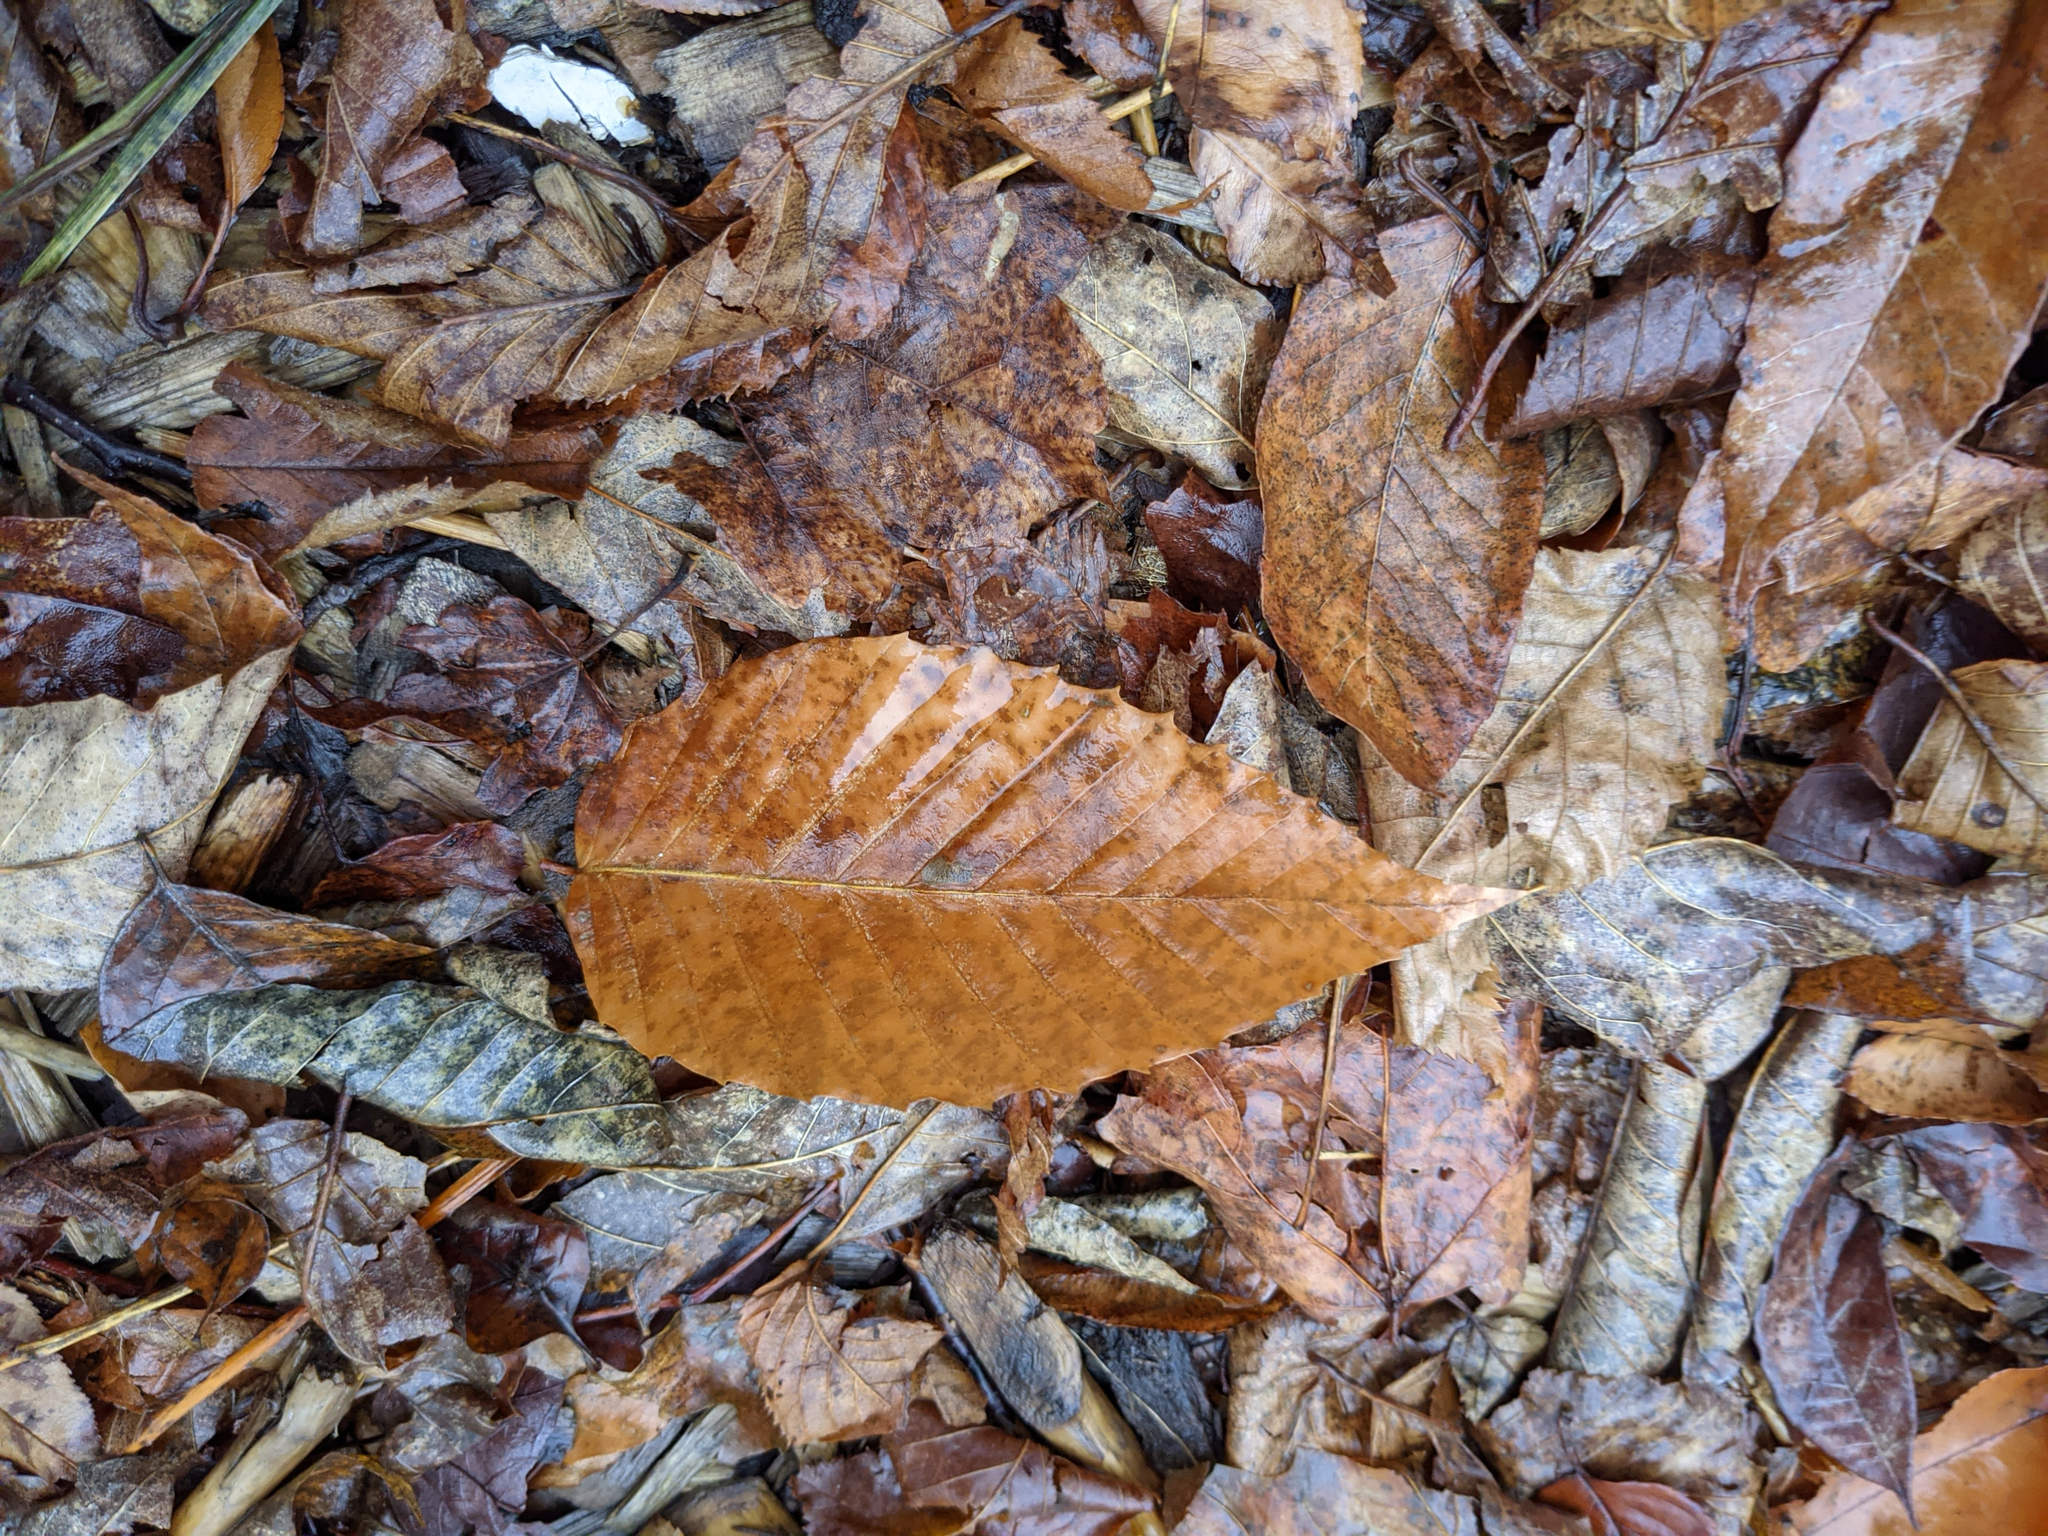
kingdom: Plantae
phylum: Tracheophyta
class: Magnoliopsida
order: Fagales
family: Fagaceae
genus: Fagus
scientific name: Fagus grandifolia
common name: American beech
